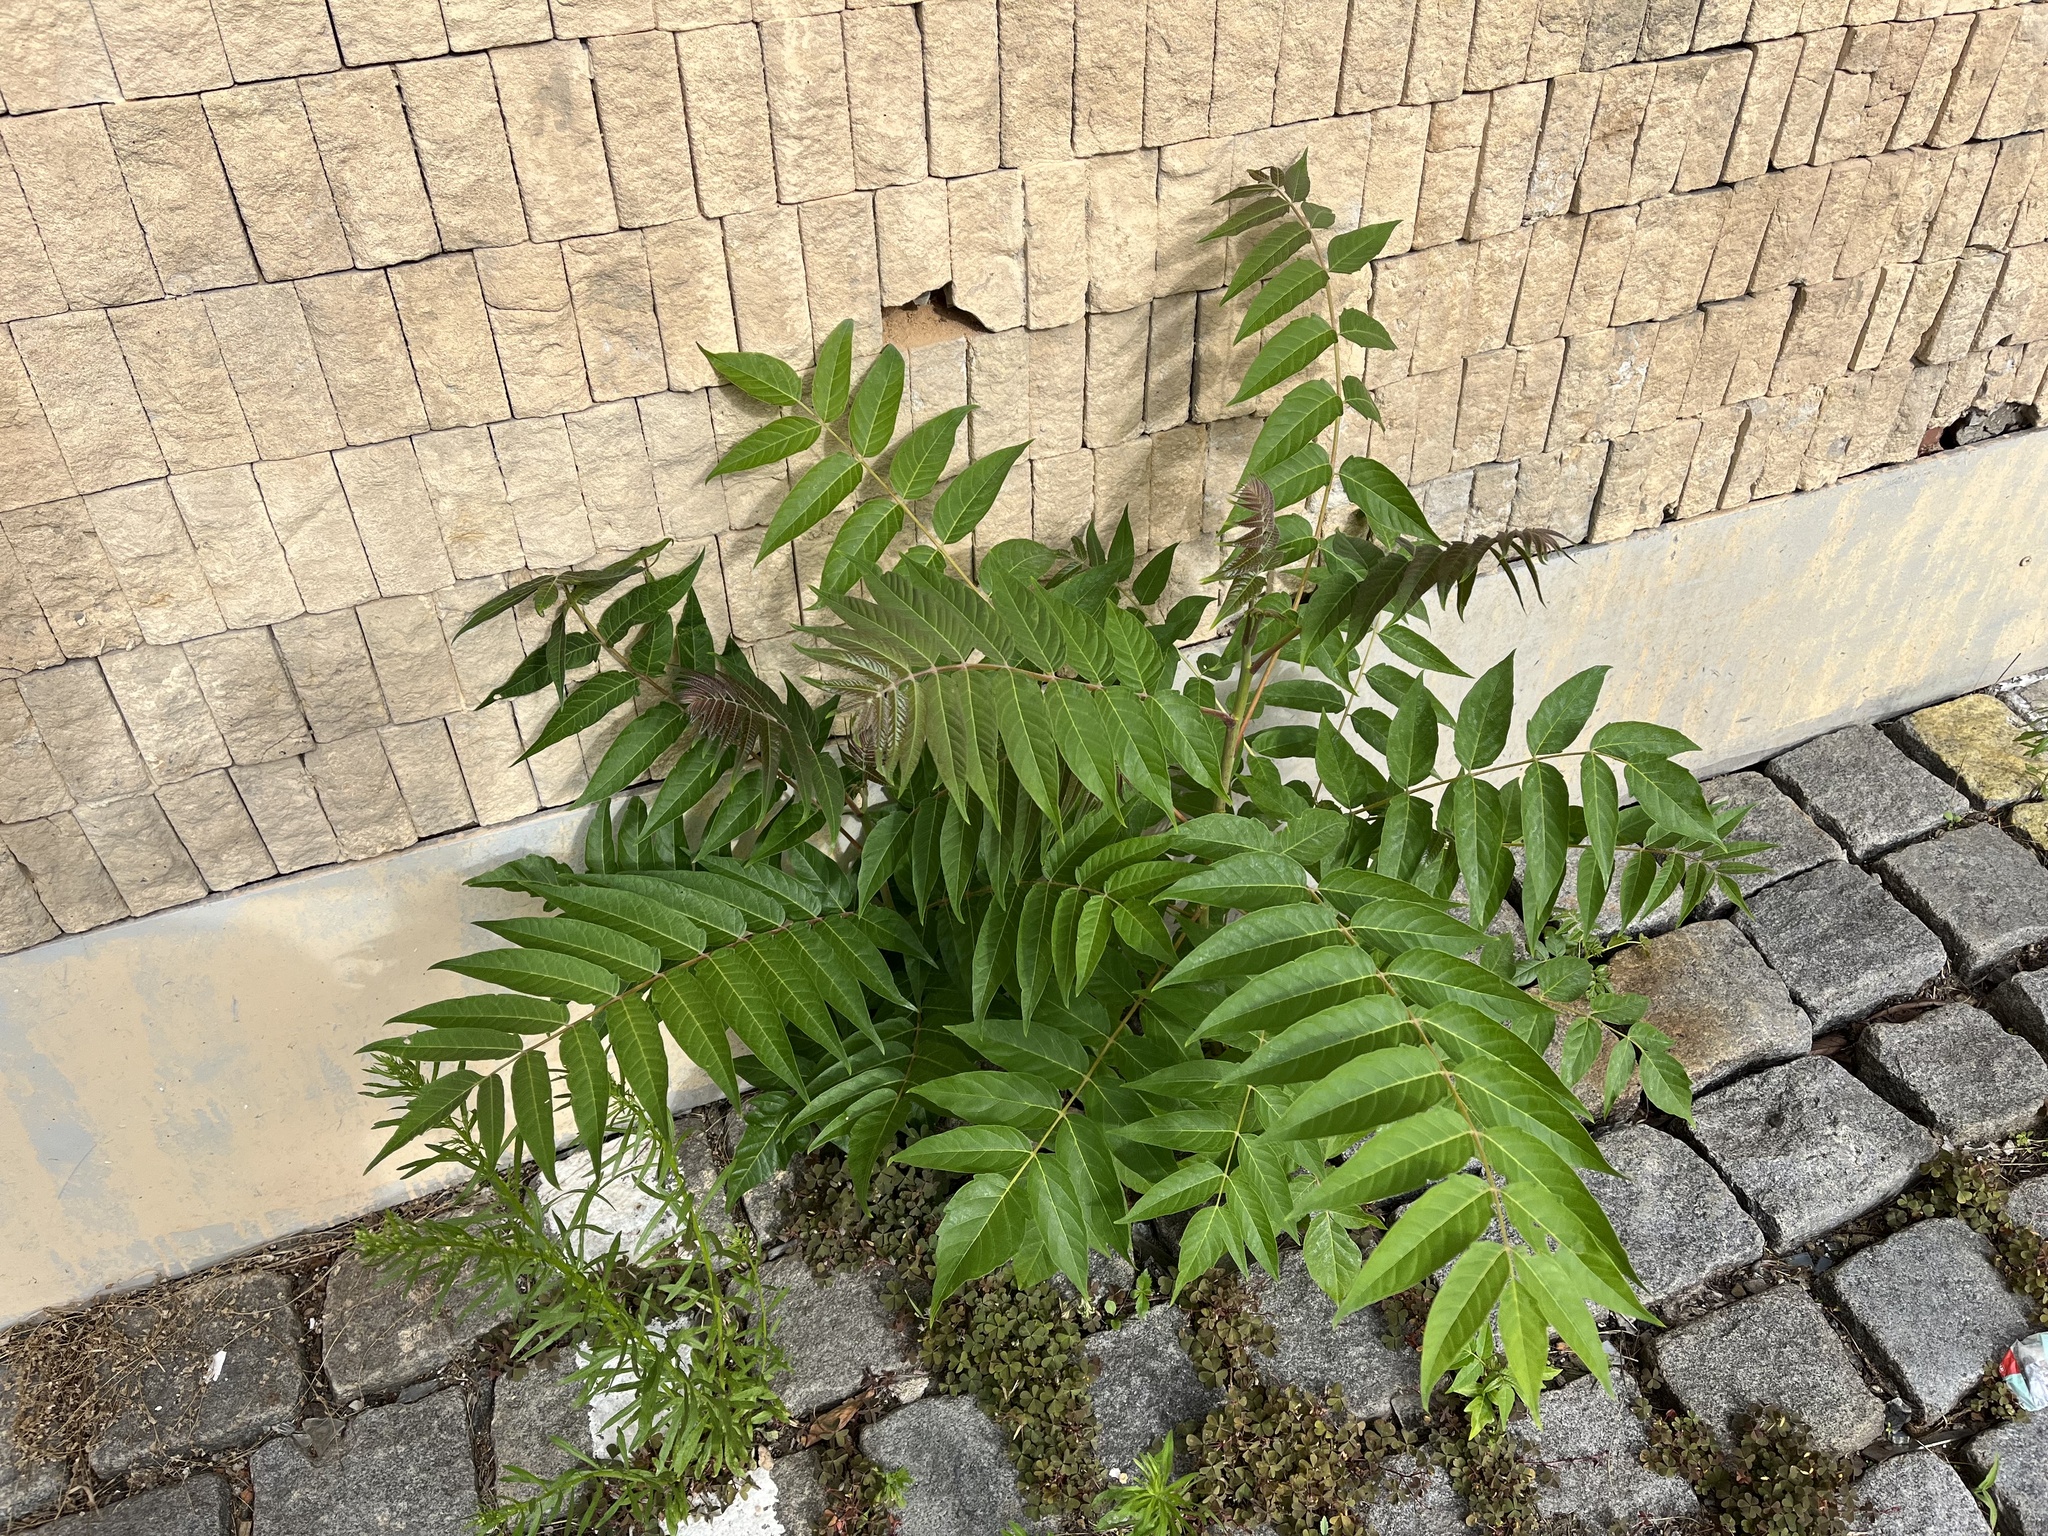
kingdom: Plantae
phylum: Tracheophyta
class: Magnoliopsida
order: Sapindales
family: Simaroubaceae
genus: Ailanthus
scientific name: Ailanthus altissima
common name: Tree-of-heaven
